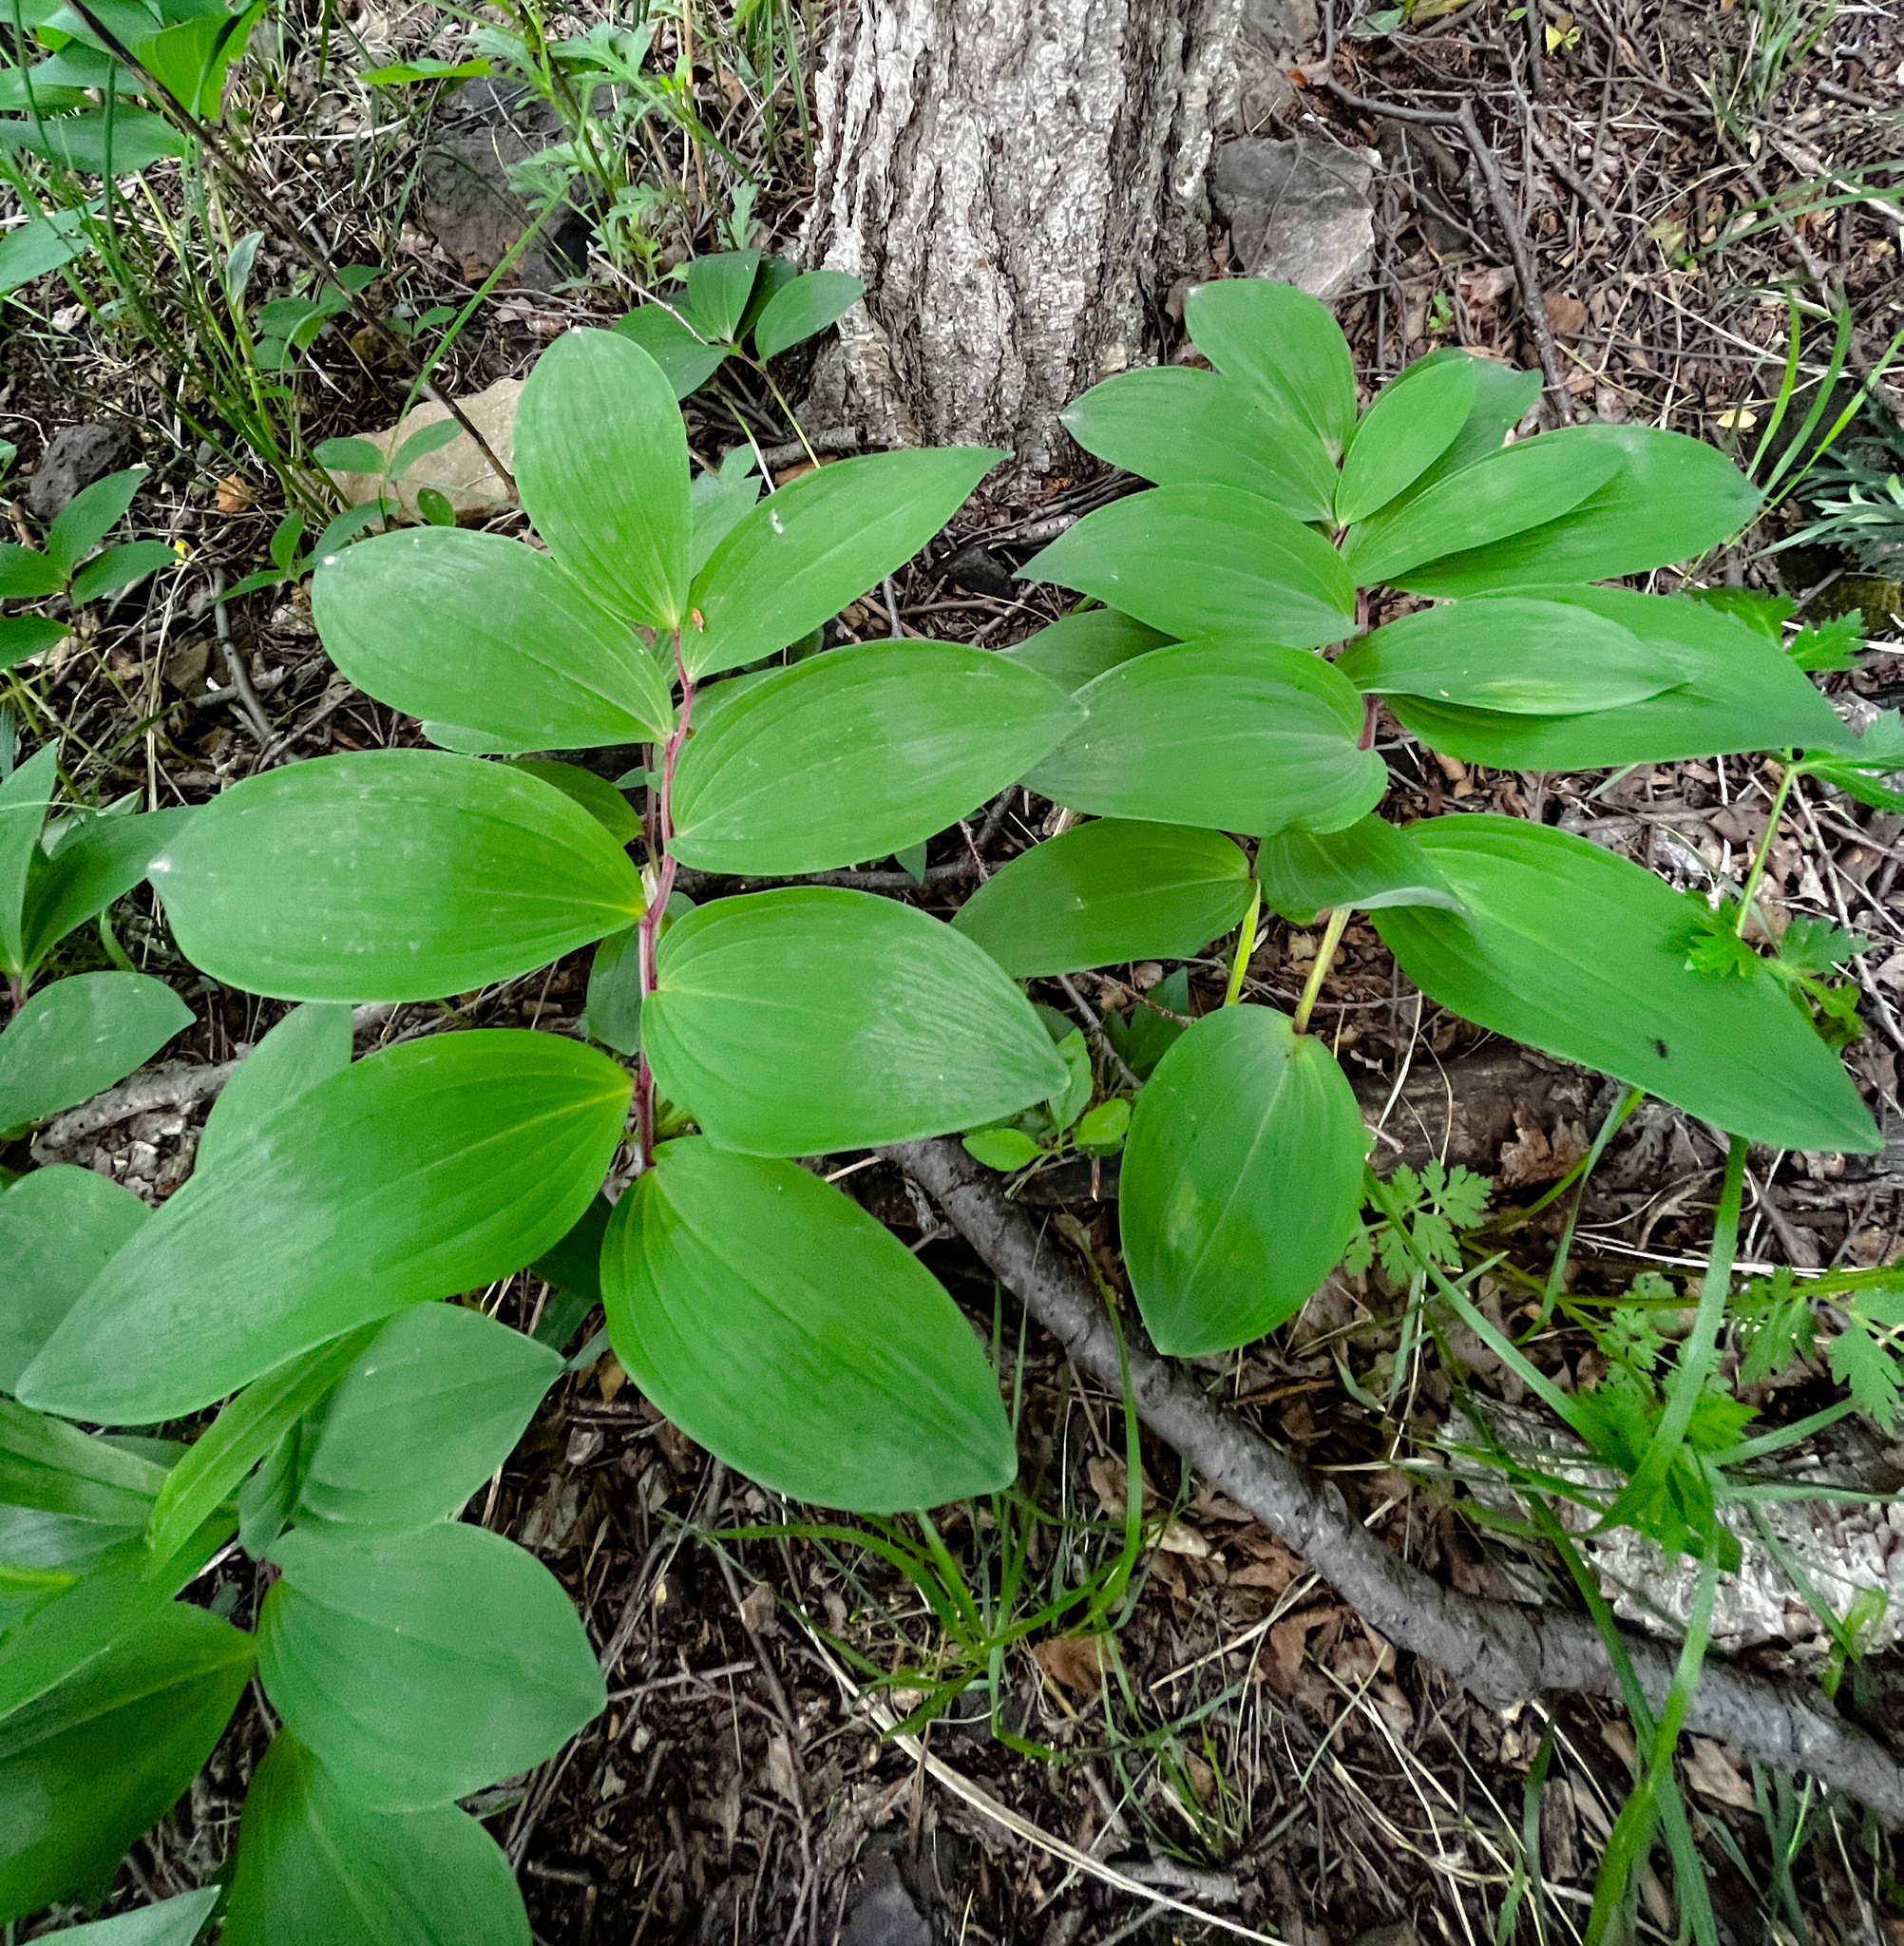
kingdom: Plantae
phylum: Tracheophyta
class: Liliopsida
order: Asparagales
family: Asparagaceae
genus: Polygonatum
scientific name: Polygonatum odoratum
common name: Angular solomon's-seal
